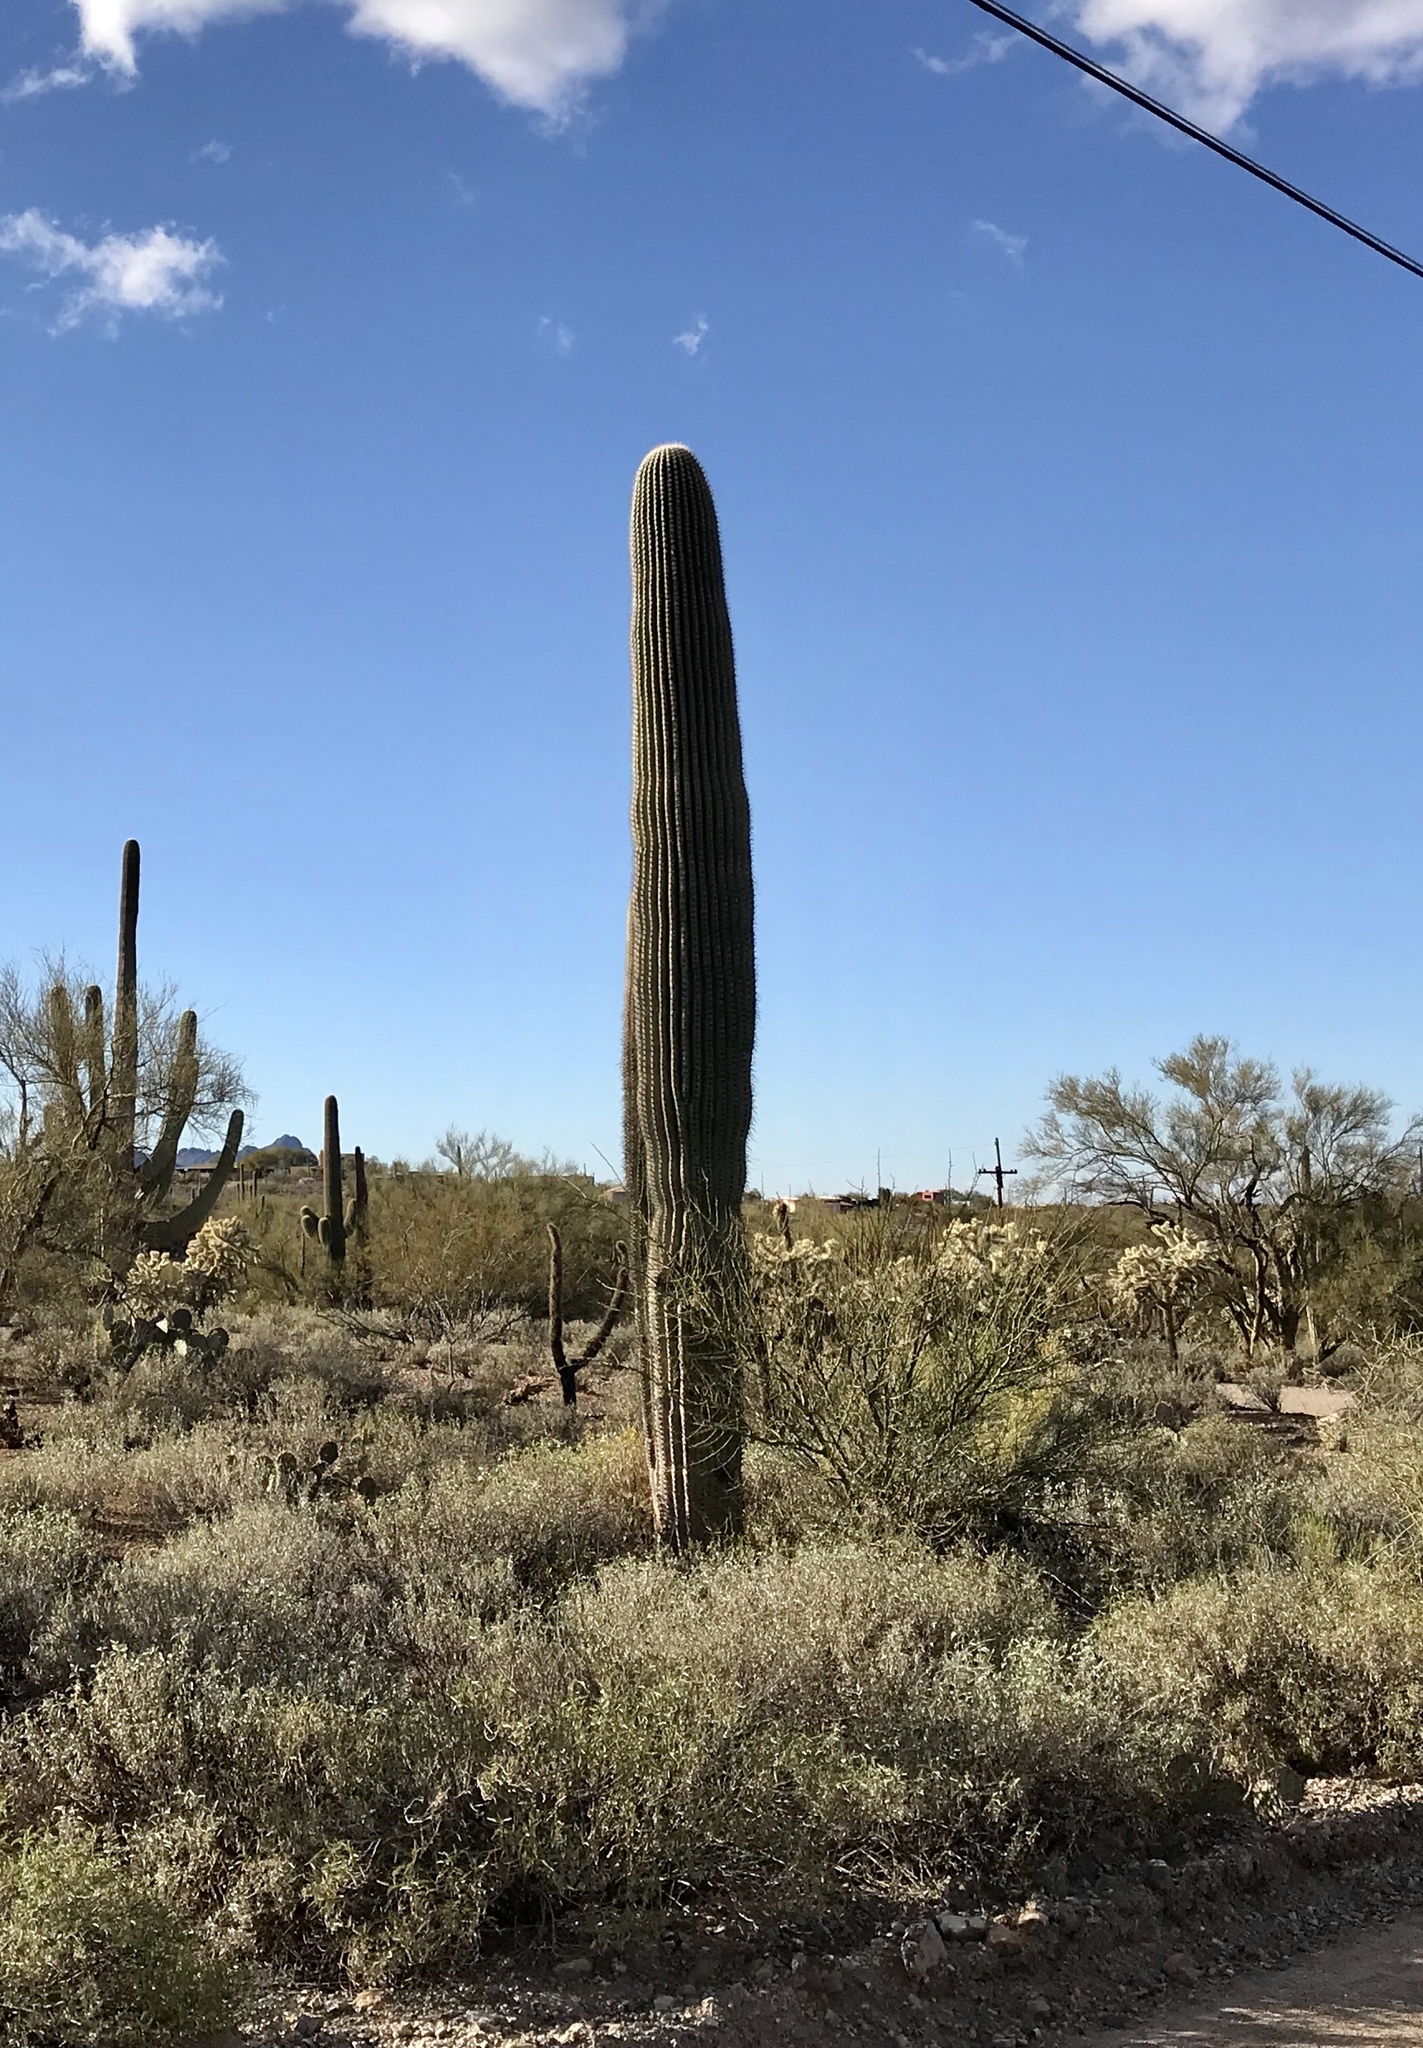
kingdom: Plantae
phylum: Tracheophyta
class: Magnoliopsida
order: Caryophyllales
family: Cactaceae
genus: Carnegiea
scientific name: Carnegiea gigantea
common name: Saguaro
